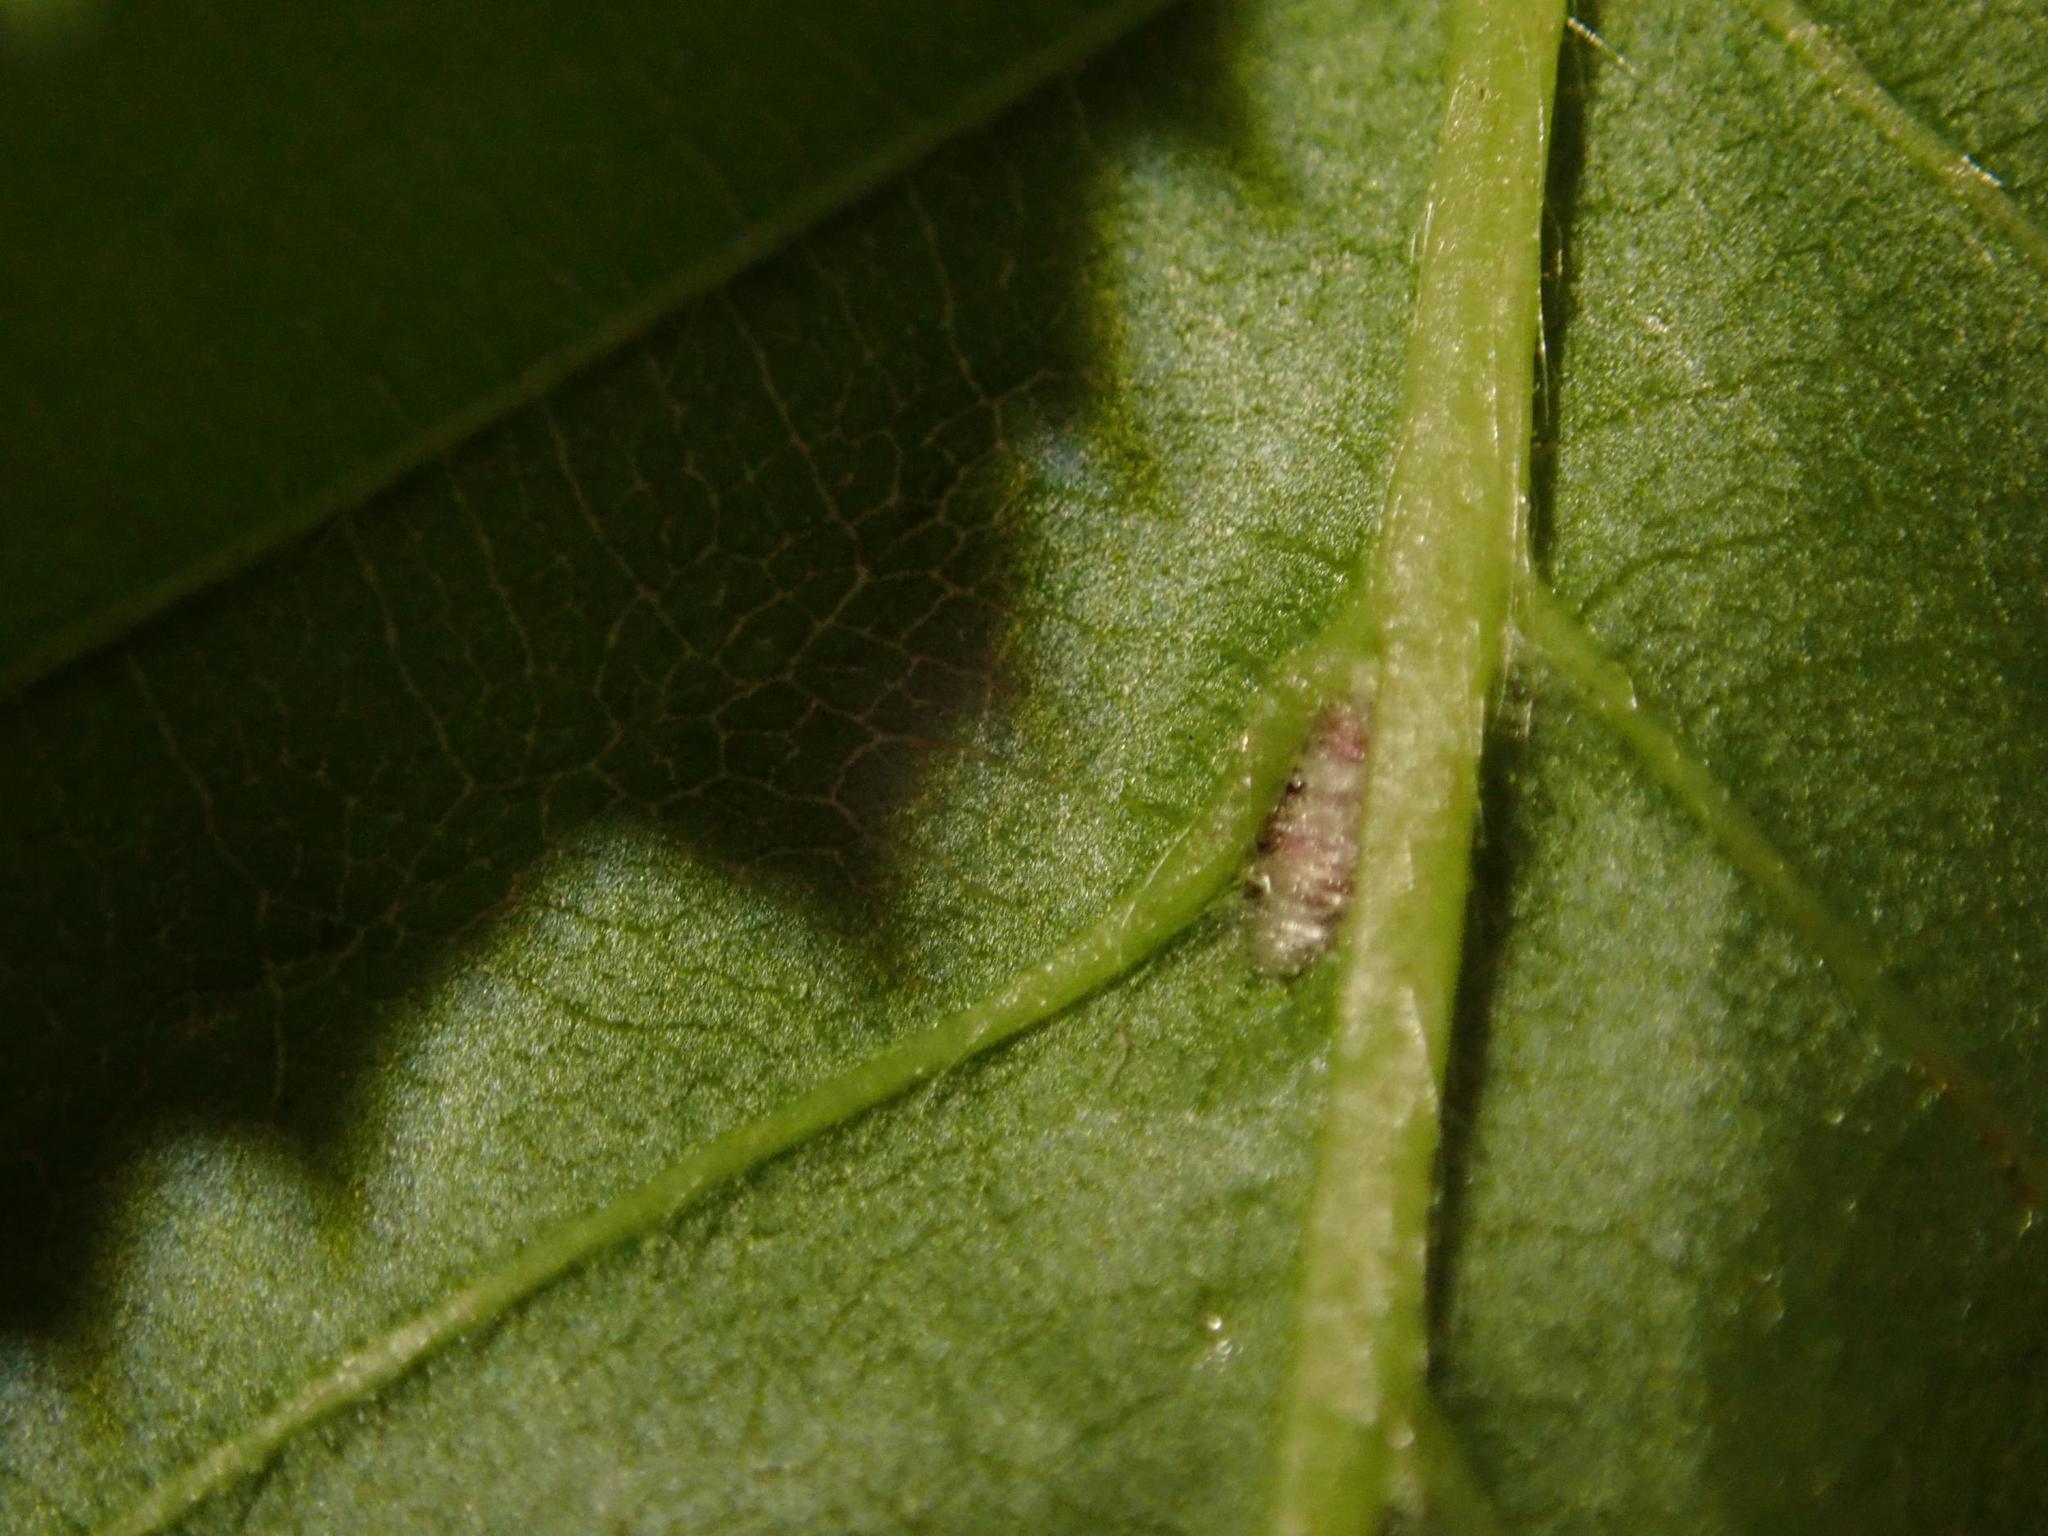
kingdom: Animalia
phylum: Arthropoda
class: Arachnida
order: Trombidiformes
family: Eriophyidae
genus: Aceria
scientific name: Aceria tenellus
